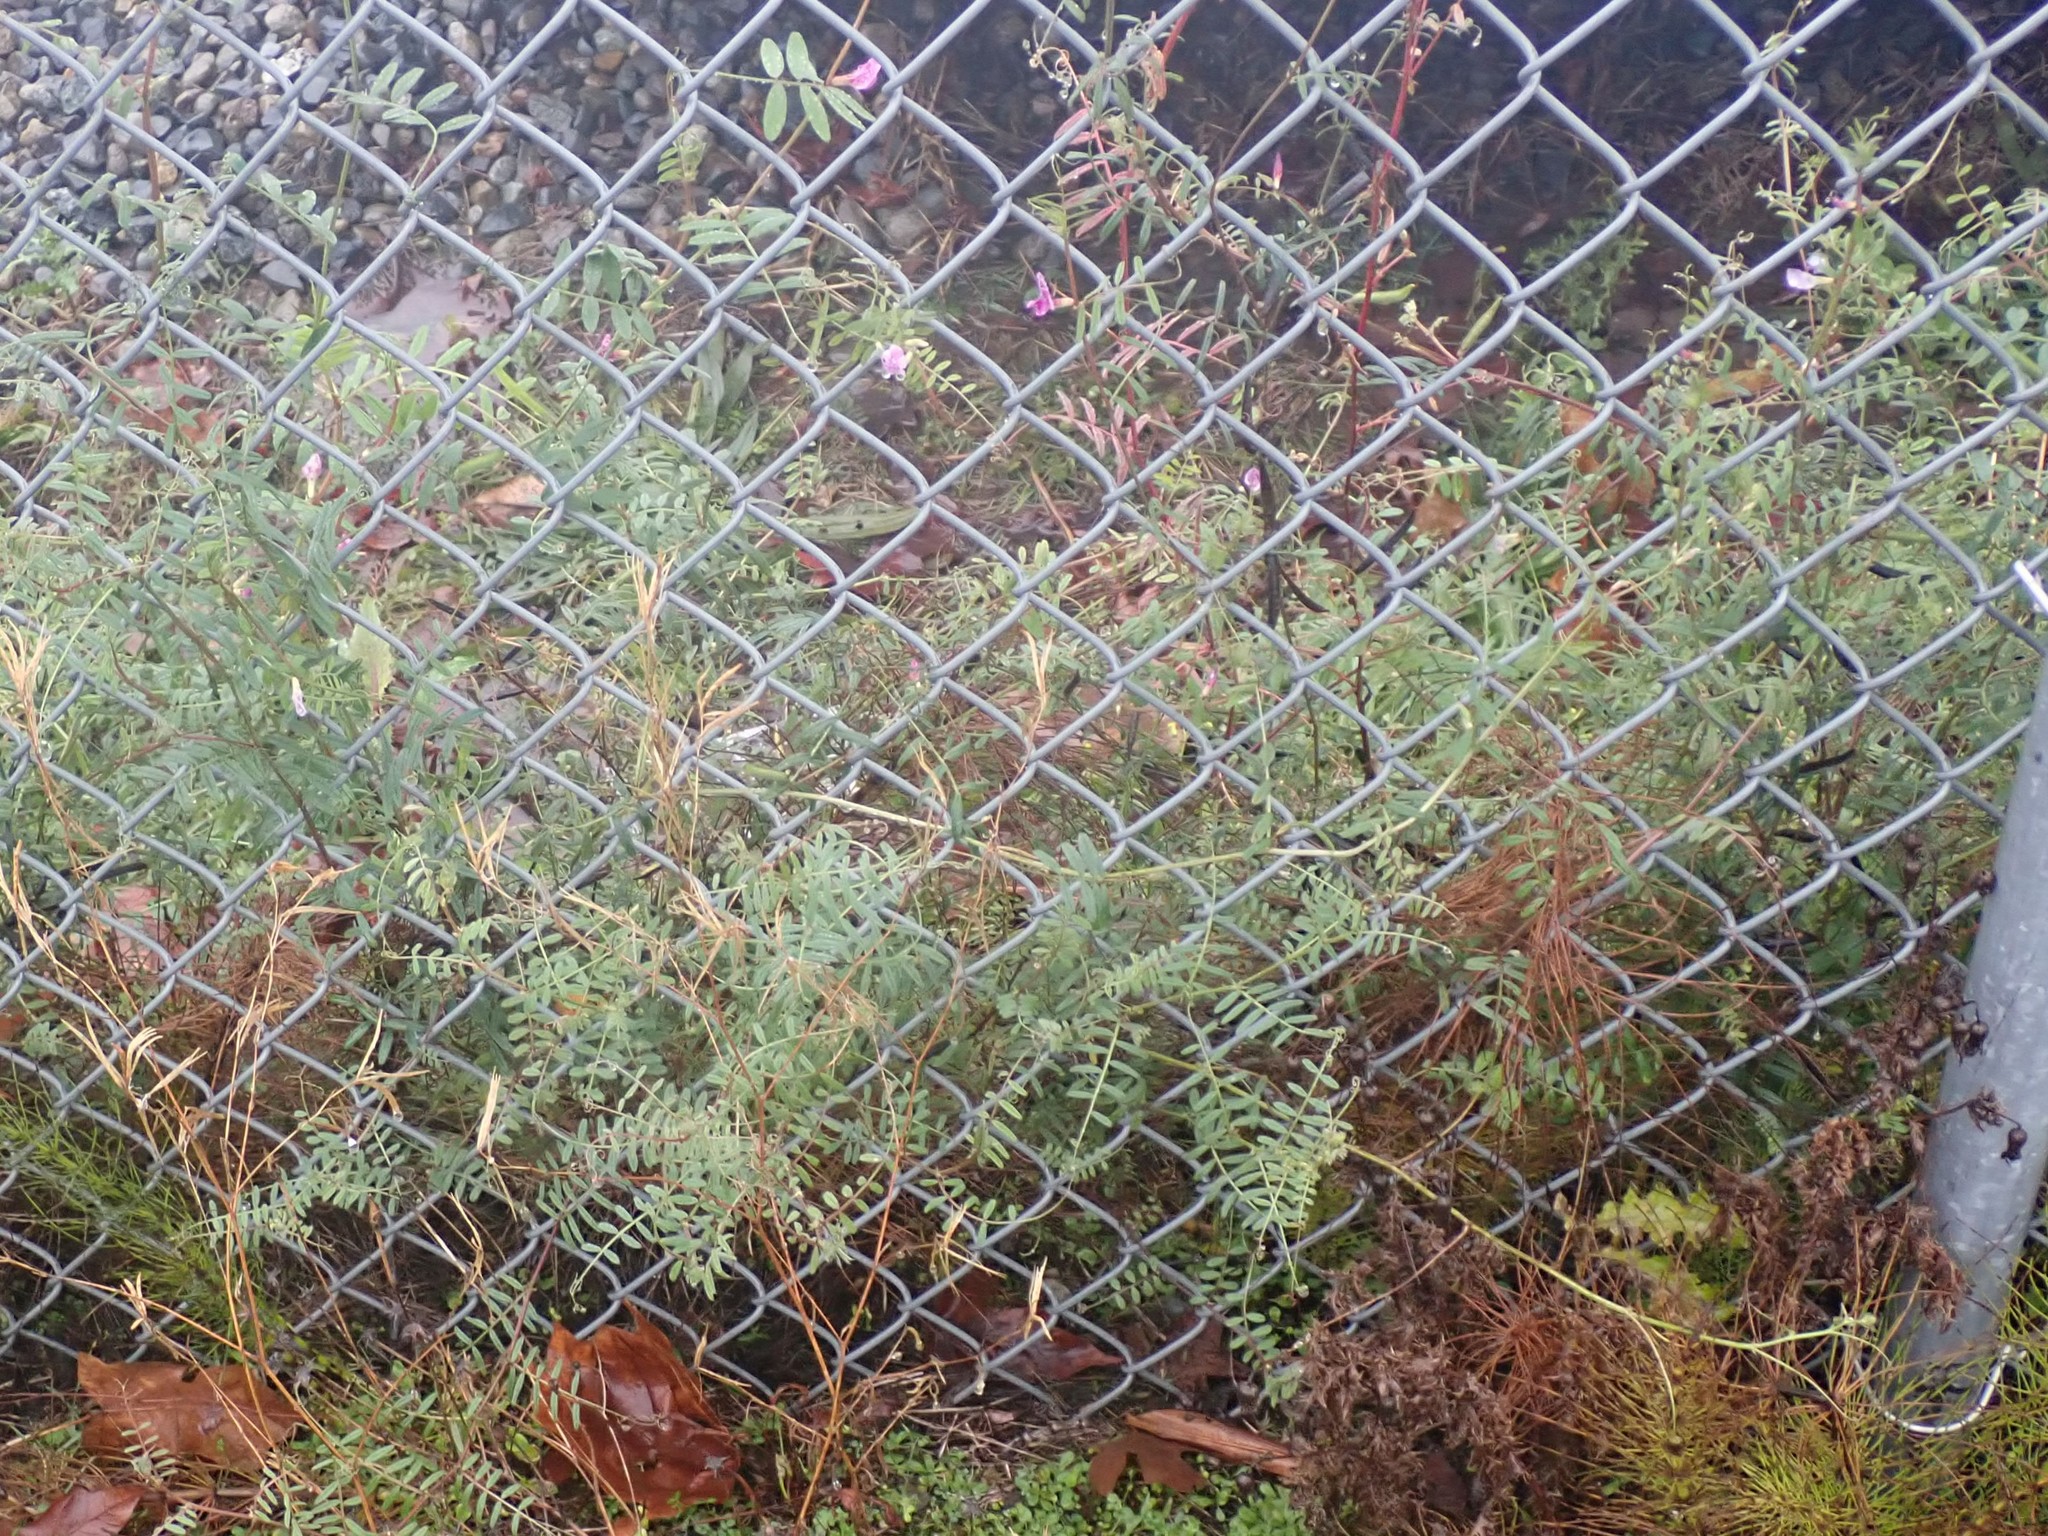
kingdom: Plantae
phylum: Tracheophyta
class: Magnoliopsida
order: Fabales
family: Fabaceae
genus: Vicia
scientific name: Vicia sativa
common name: Garden vetch
